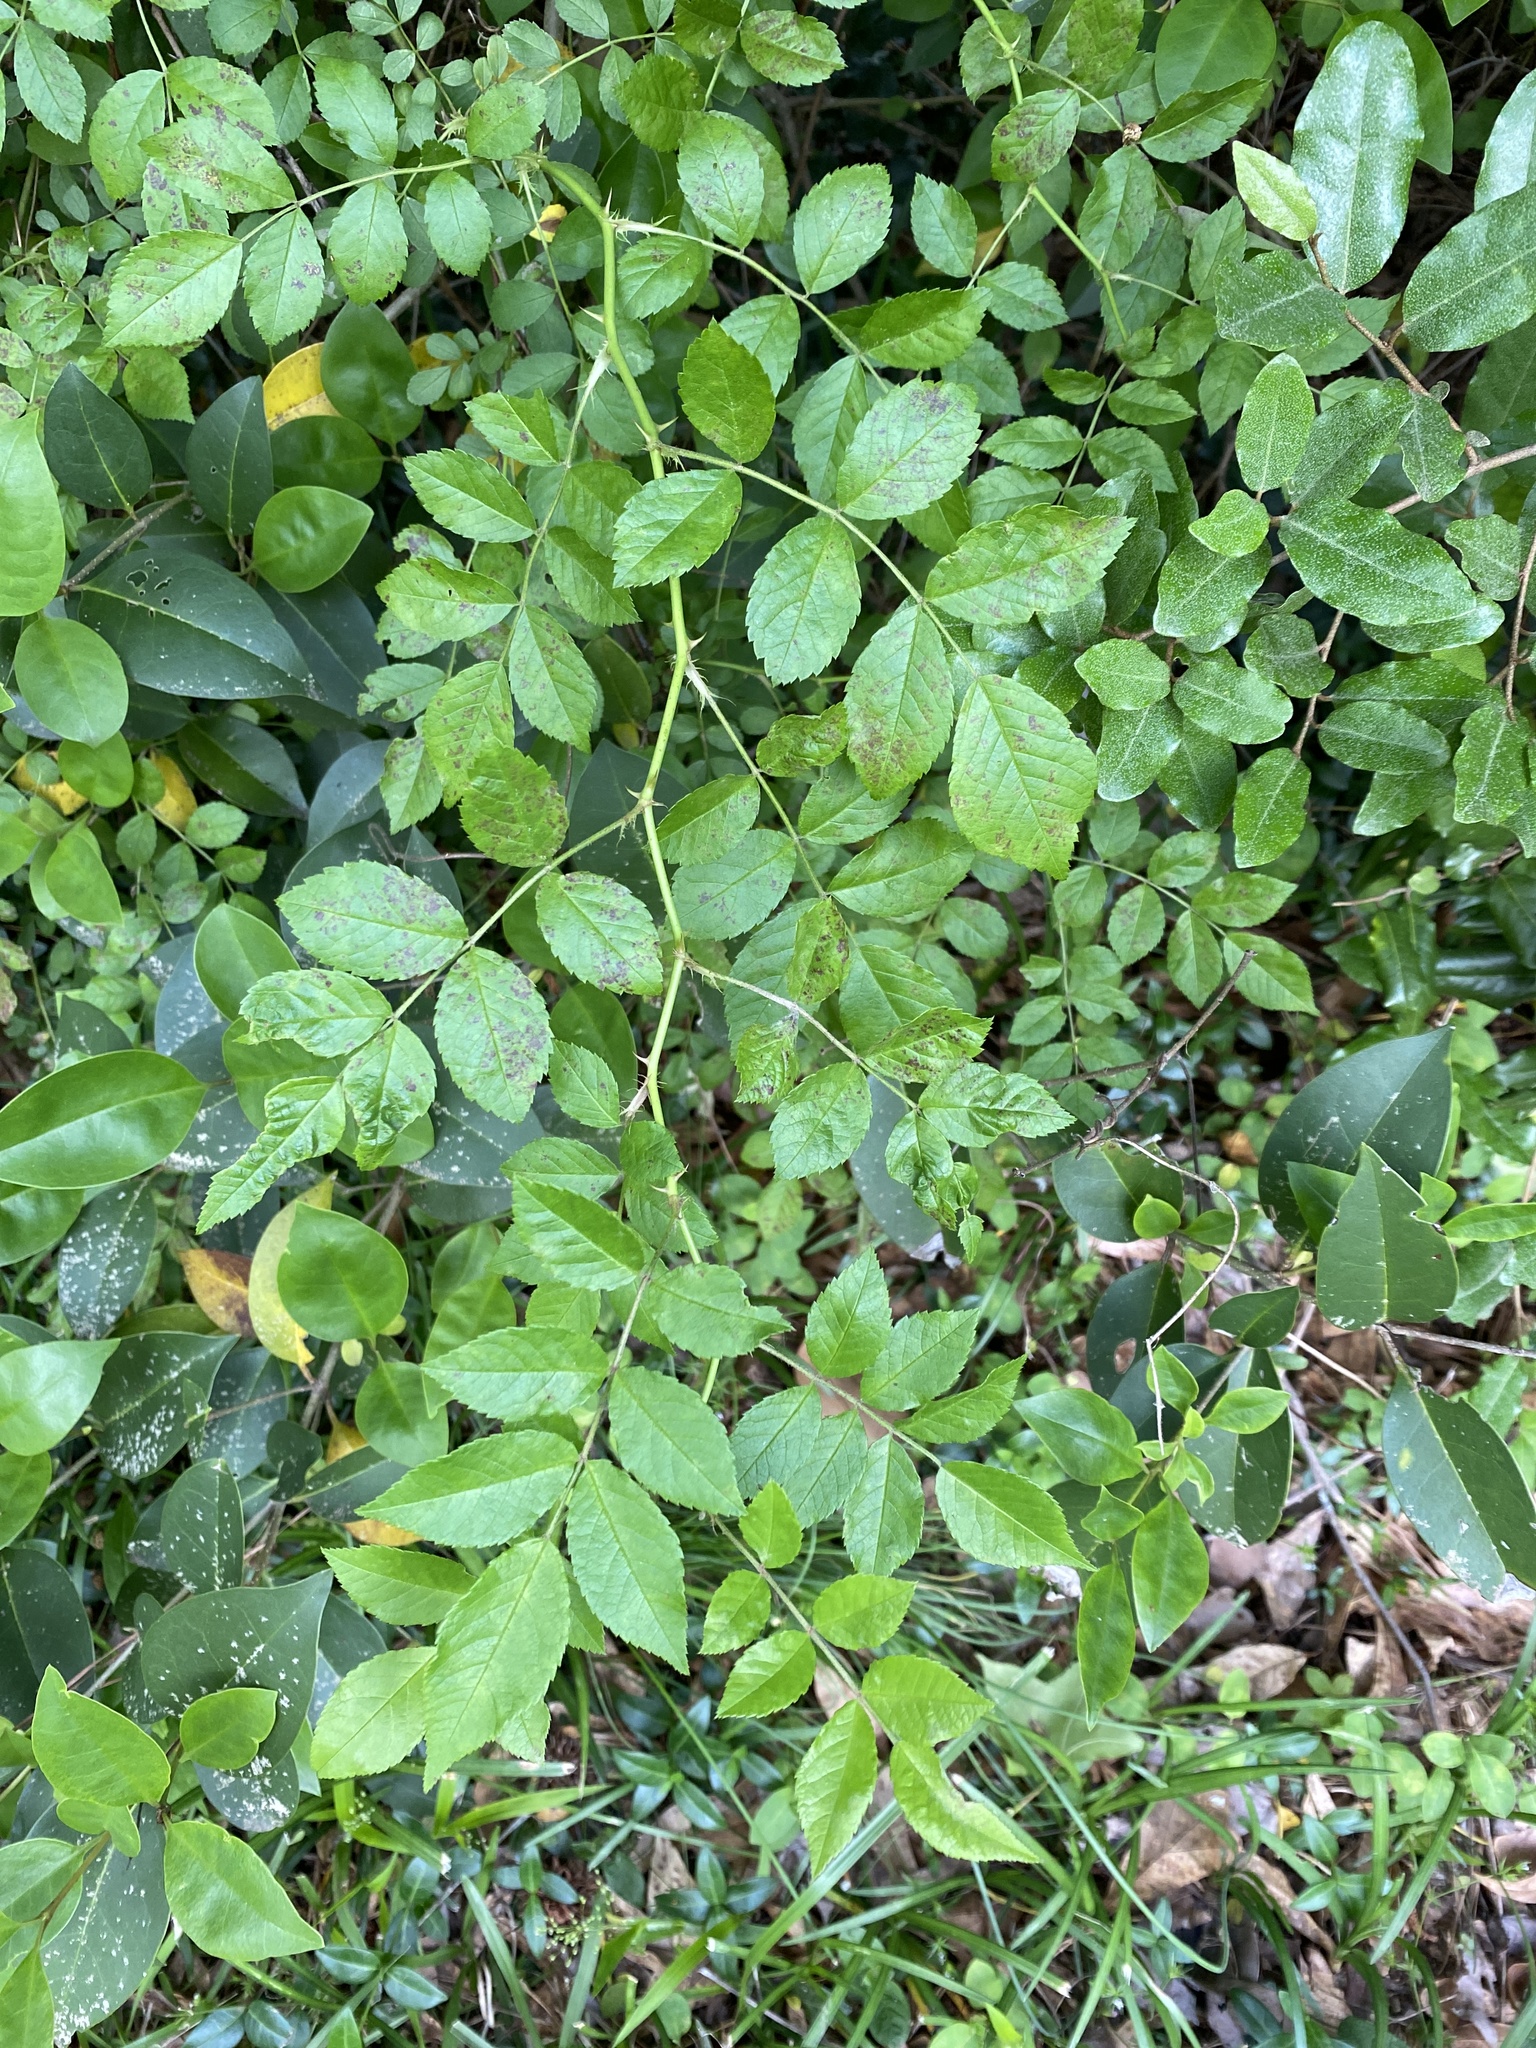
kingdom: Plantae
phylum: Tracheophyta
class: Magnoliopsida
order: Rosales
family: Rosaceae
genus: Rosa
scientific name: Rosa multiflora
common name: Multiflora rose
